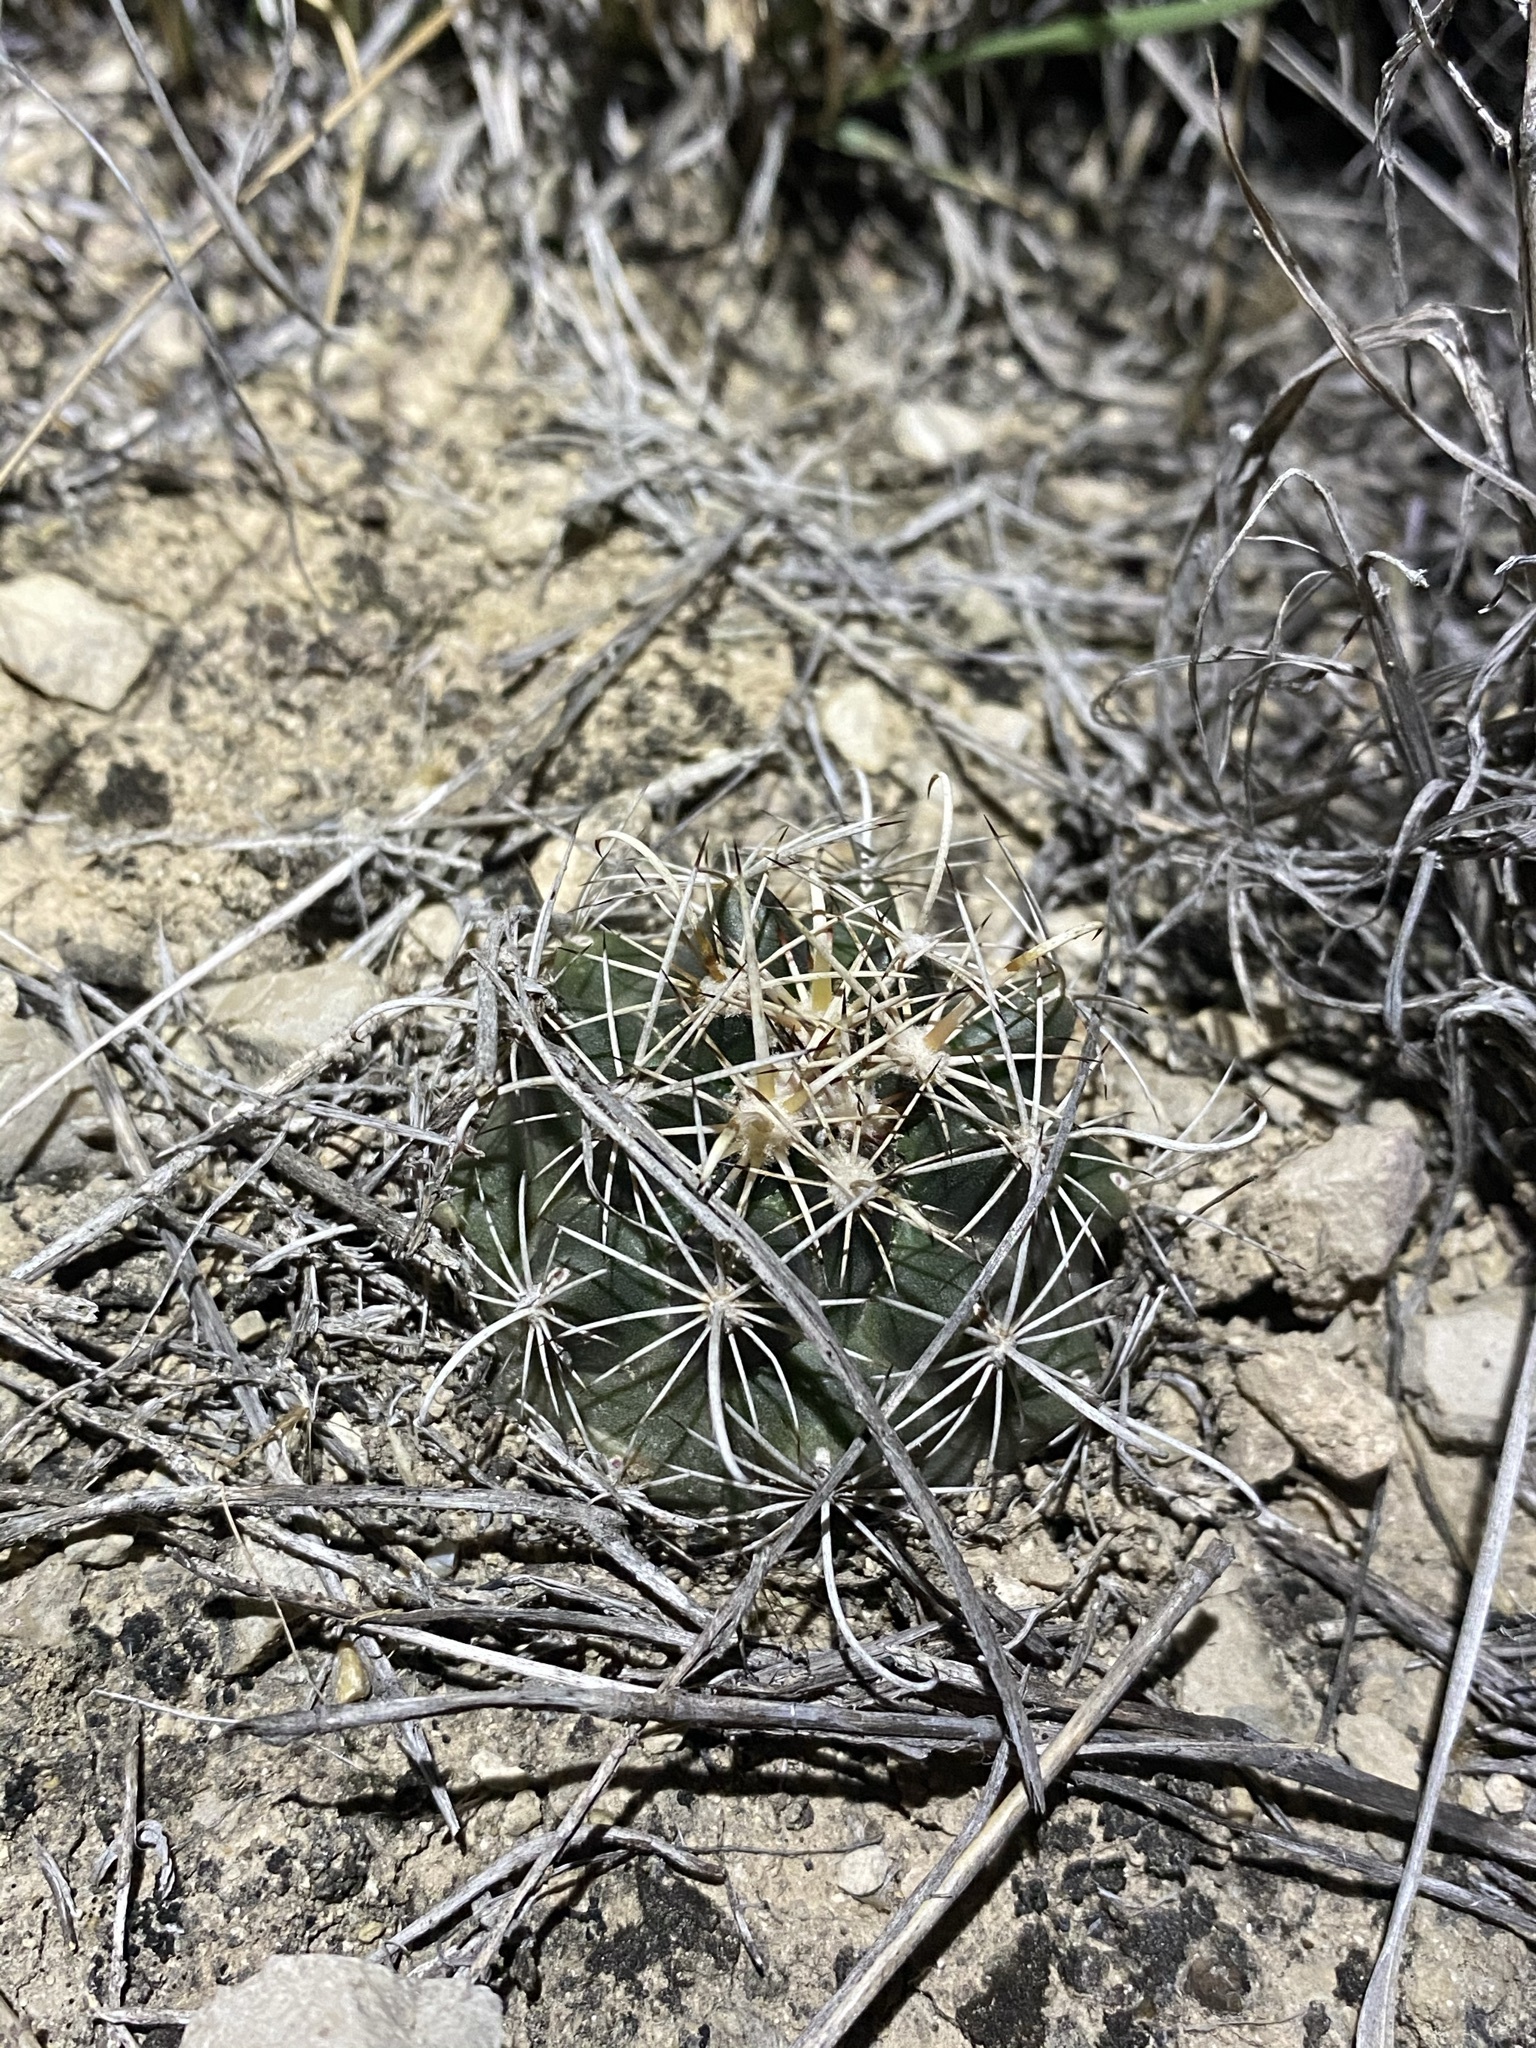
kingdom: Plantae
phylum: Tracheophyta
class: Magnoliopsida
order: Caryophyllales
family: Cactaceae
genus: Sclerocactus
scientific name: Sclerocactus brevihamatus
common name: Engelmann's fishhook cactus
